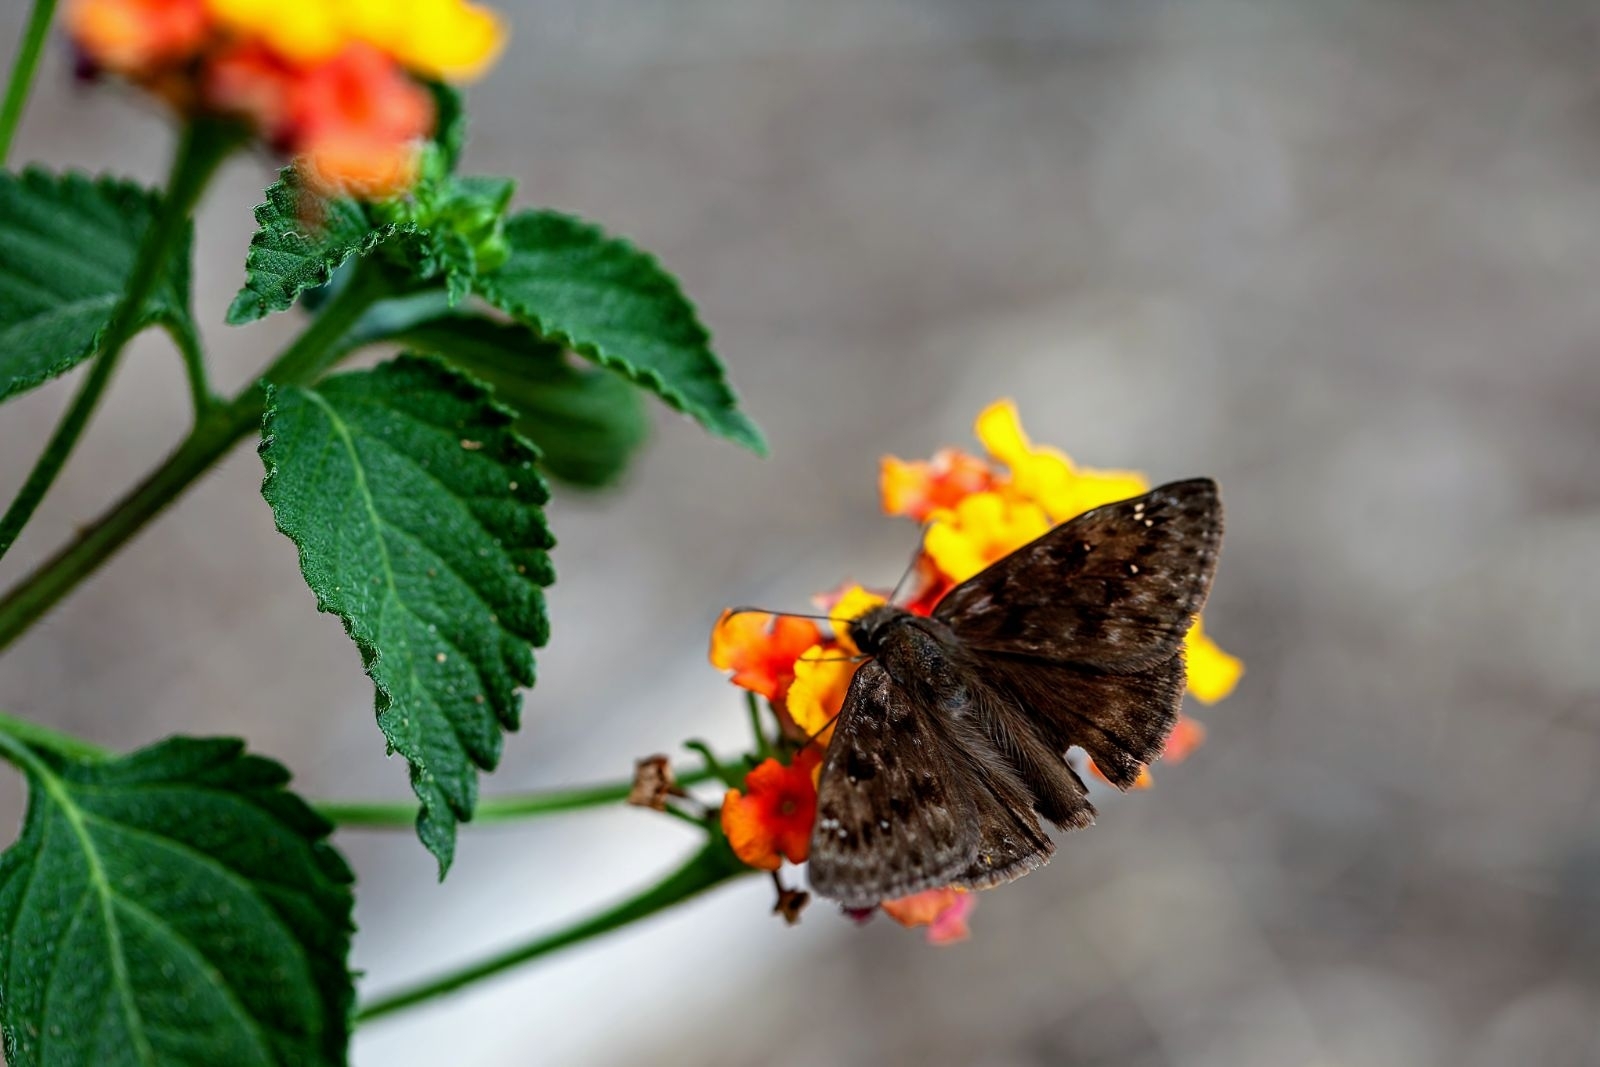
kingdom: Animalia
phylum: Arthropoda
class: Insecta
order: Lepidoptera
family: Hesperiidae
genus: Erynnis
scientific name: Erynnis horatius
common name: Horace's duskywing
